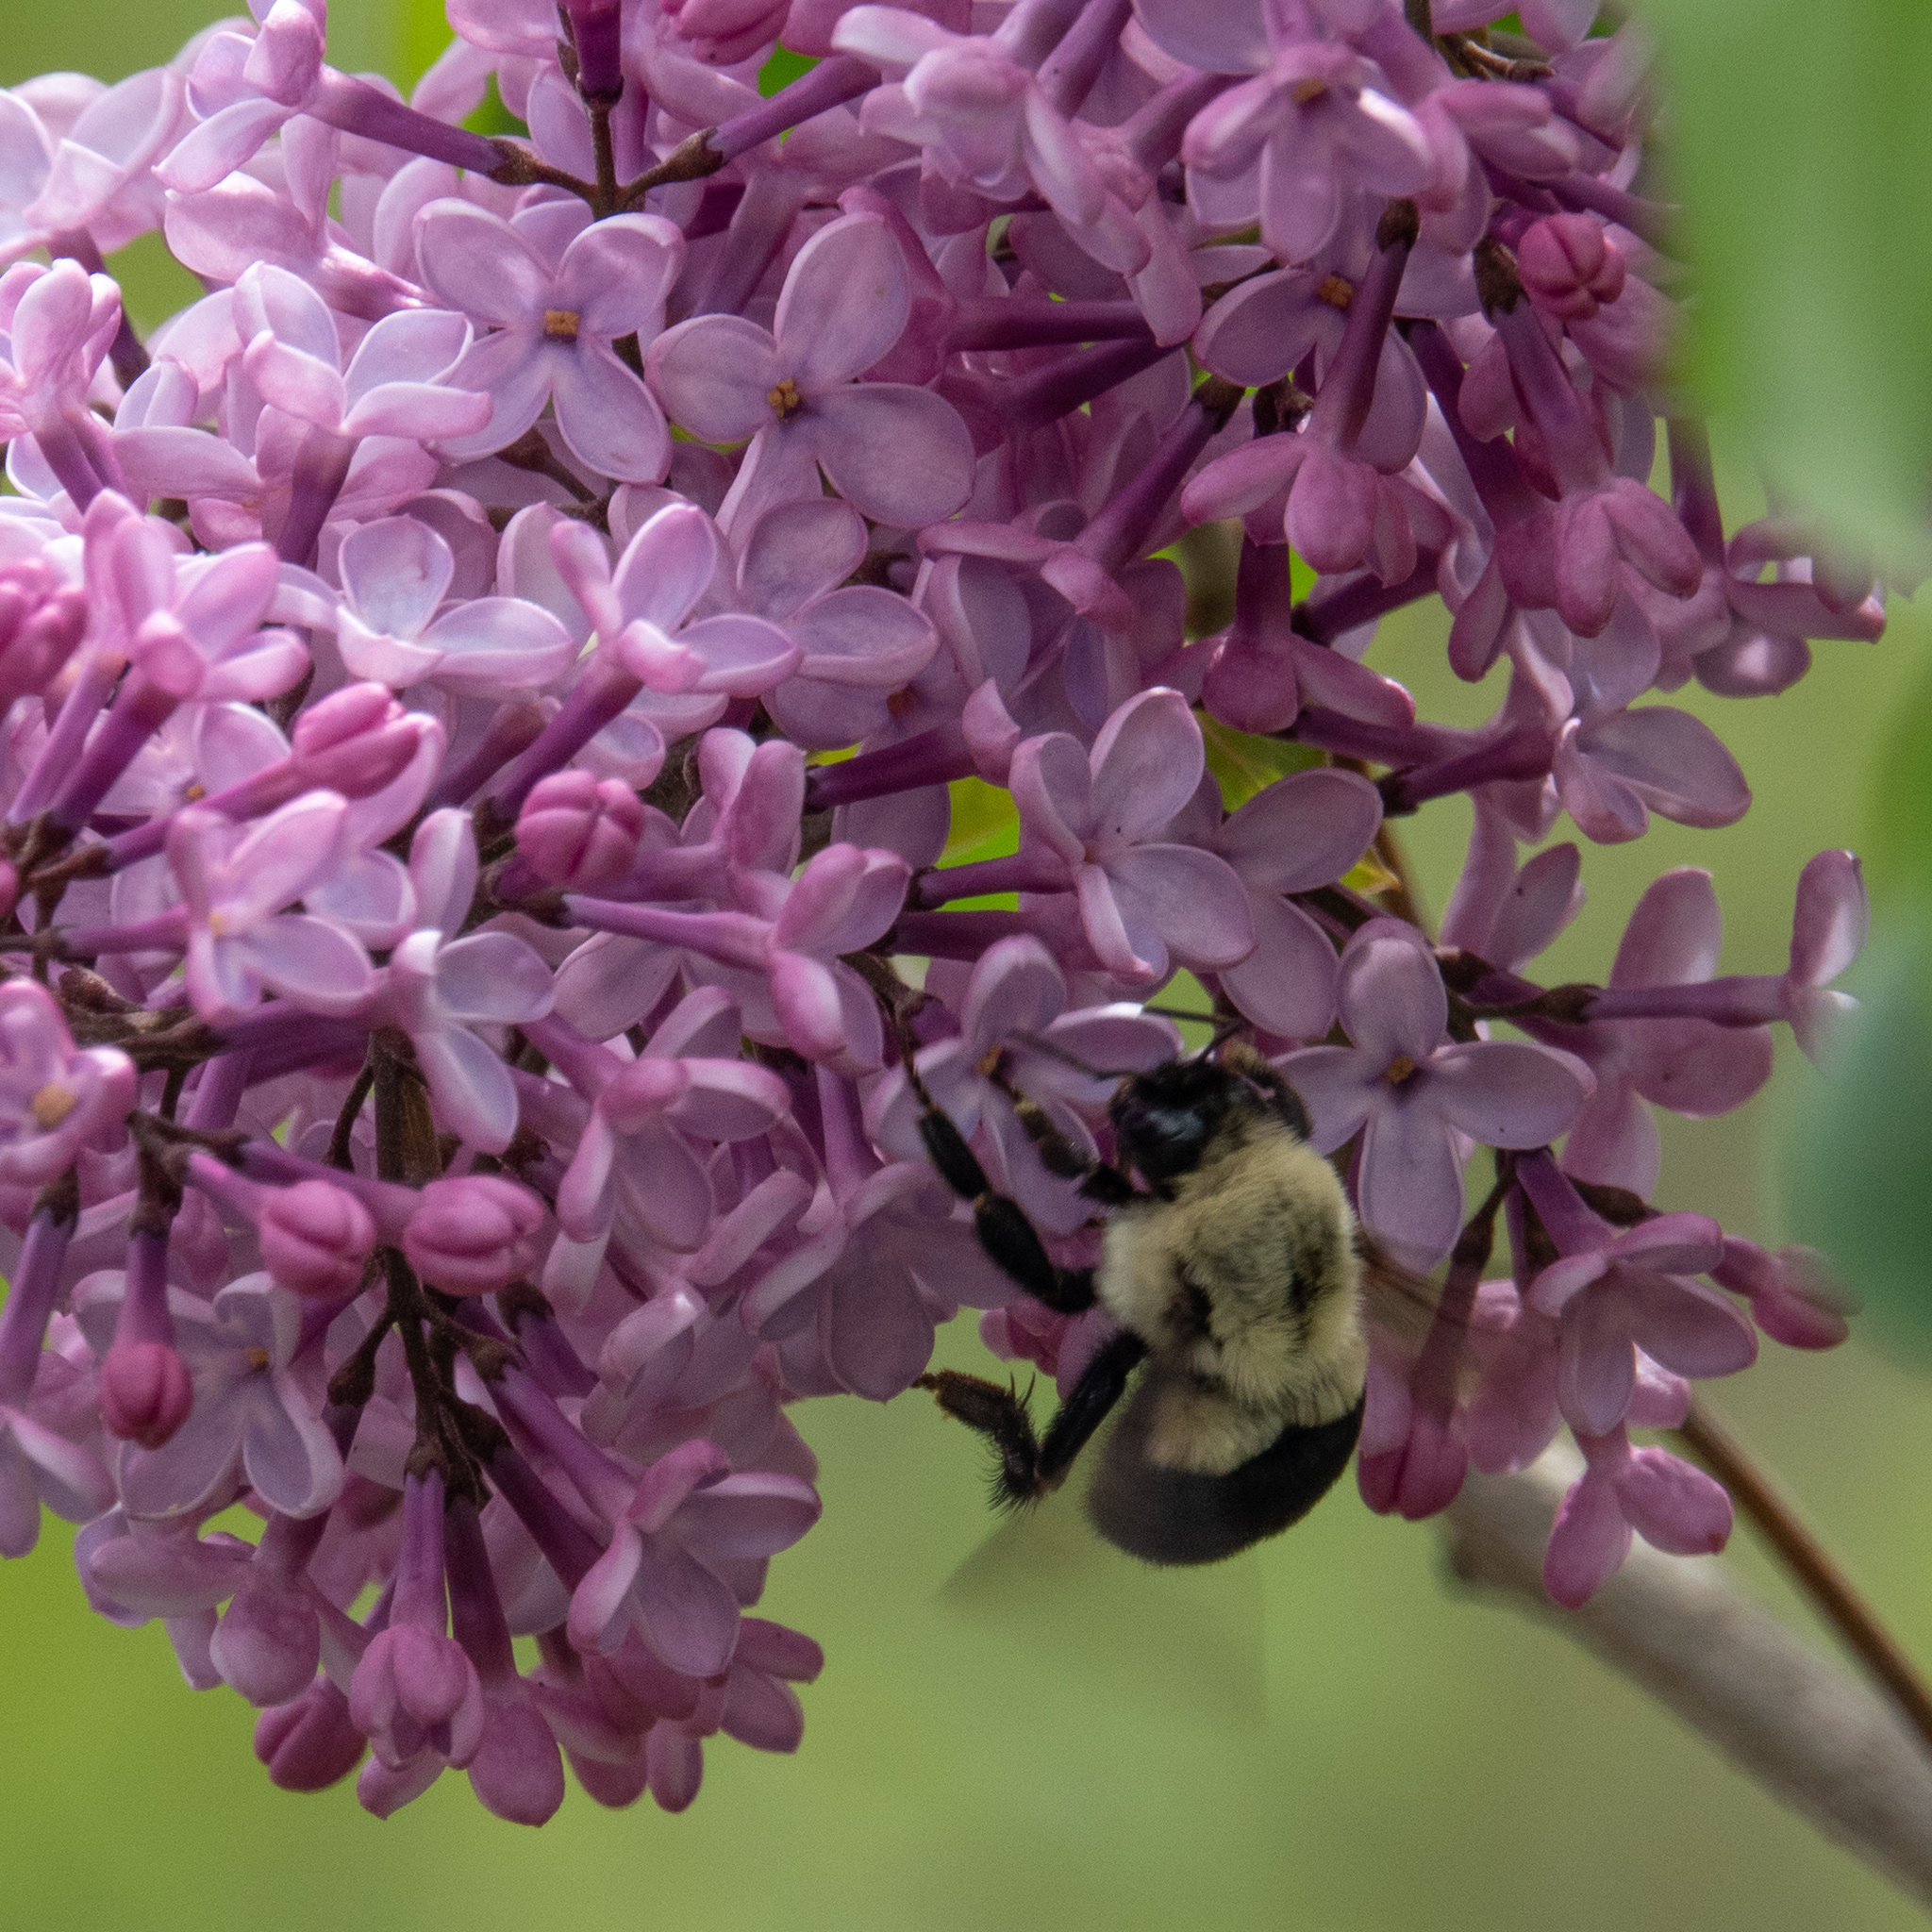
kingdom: Animalia
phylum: Arthropoda
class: Insecta
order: Hymenoptera
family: Apidae
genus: Bombus
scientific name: Bombus impatiens
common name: Common eastern bumble bee
